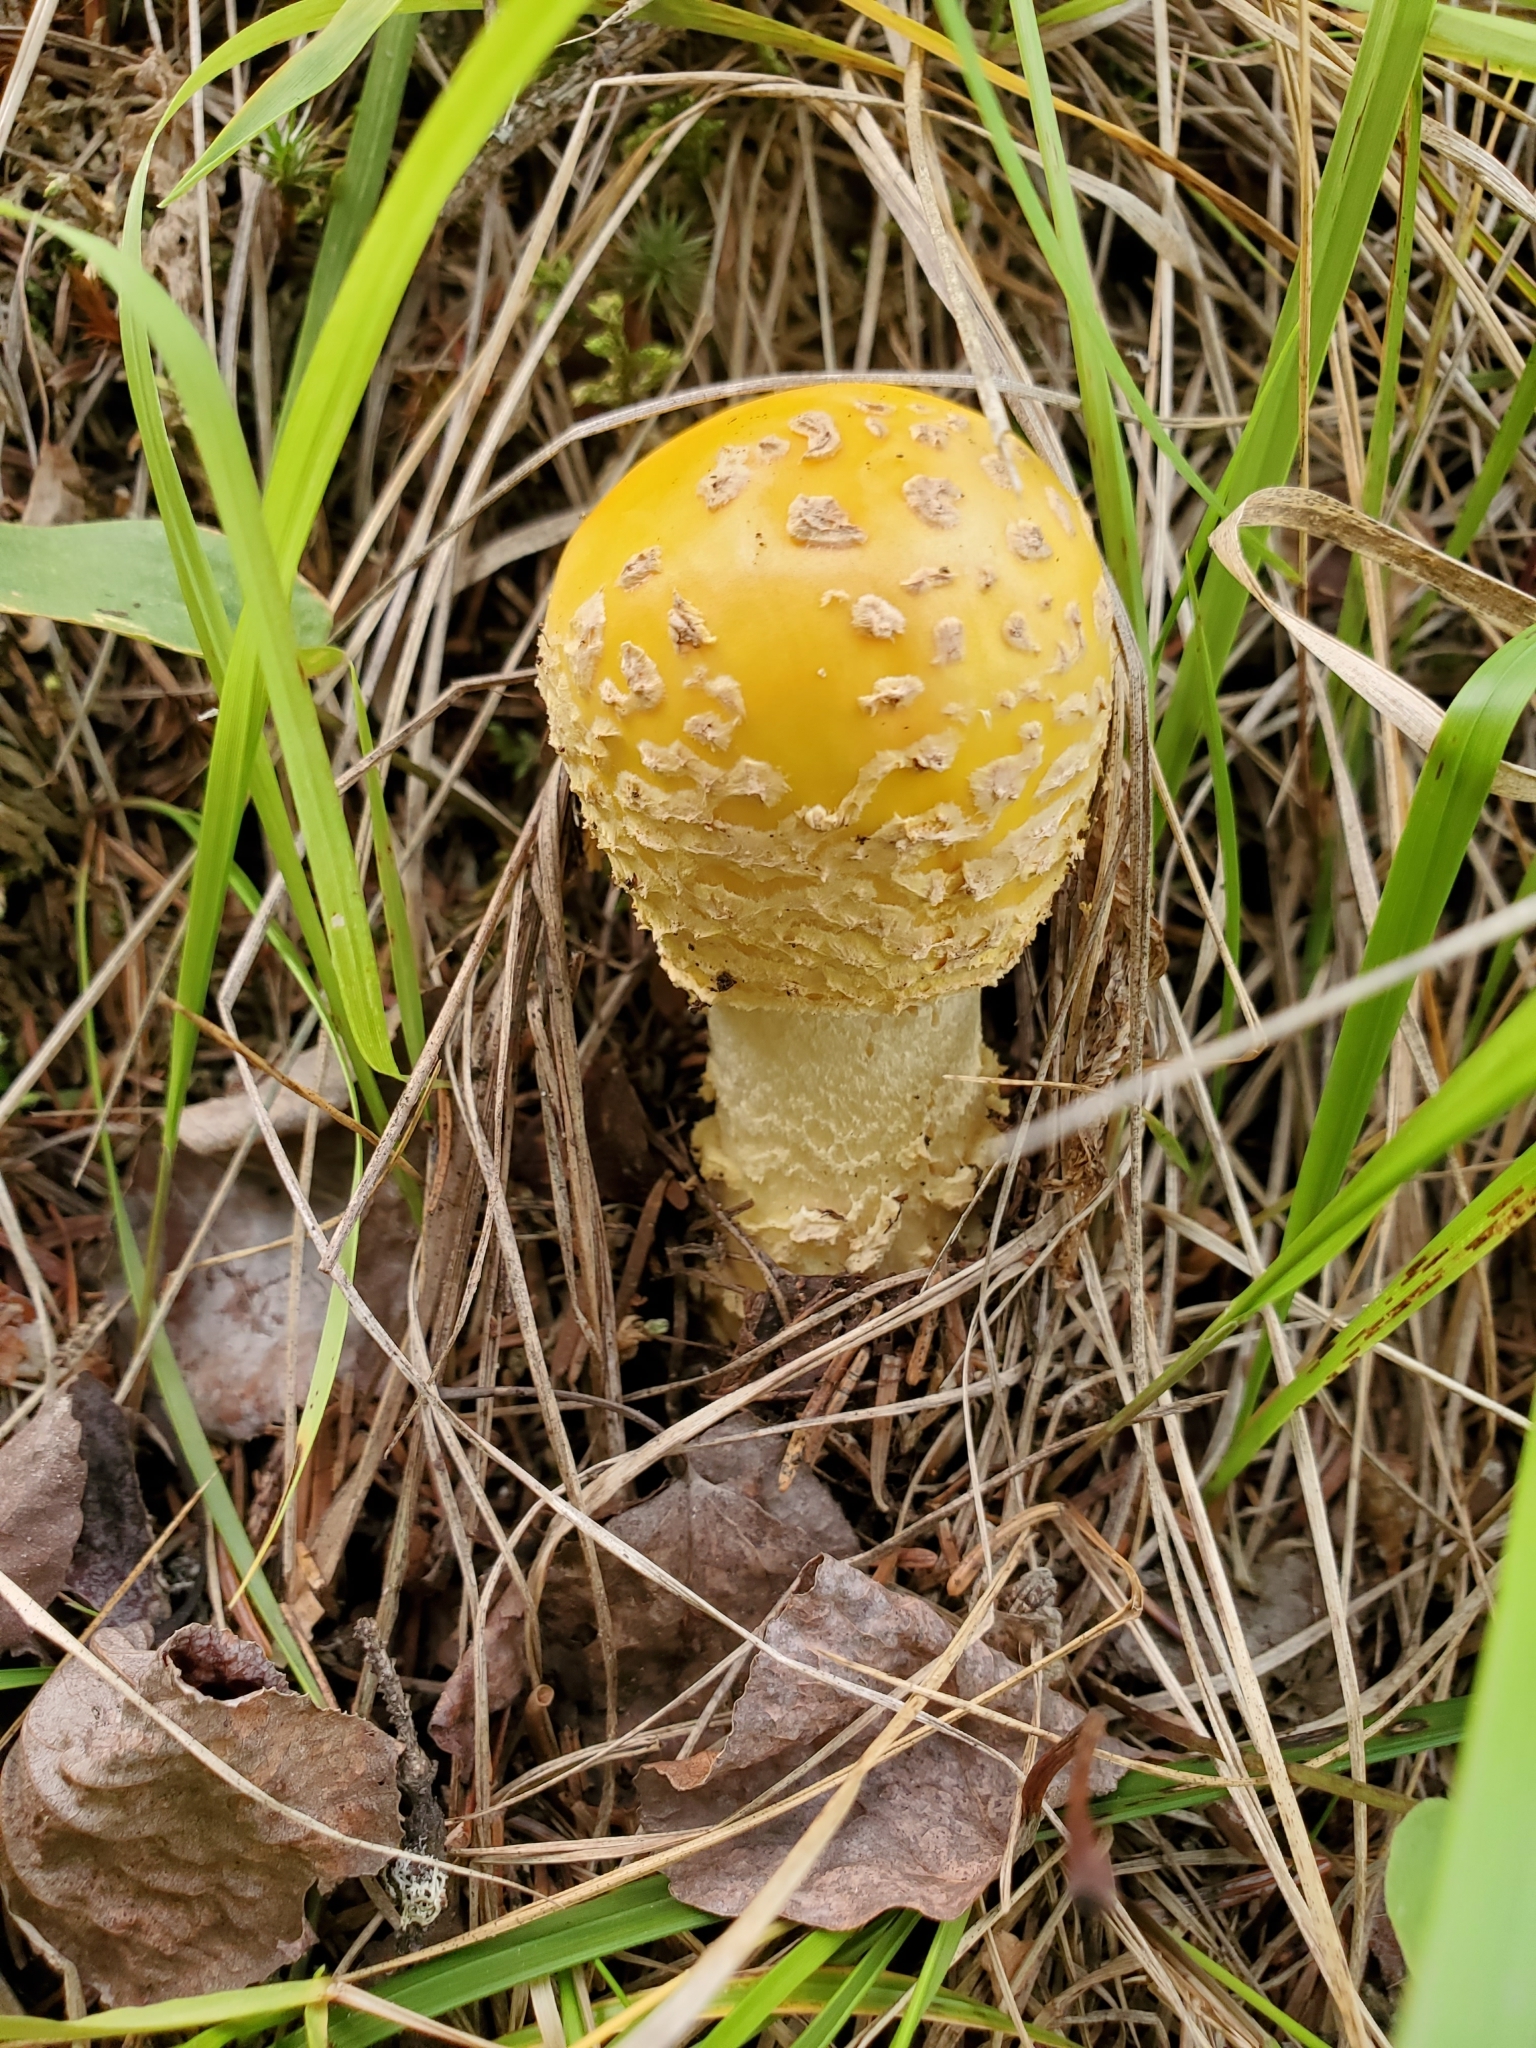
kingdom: Fungi
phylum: Basidiomycota
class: Agaricomycetes
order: Agaricales
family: Amanitaceae
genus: Amanita
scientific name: Amanita muscaria
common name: Fly agaric
